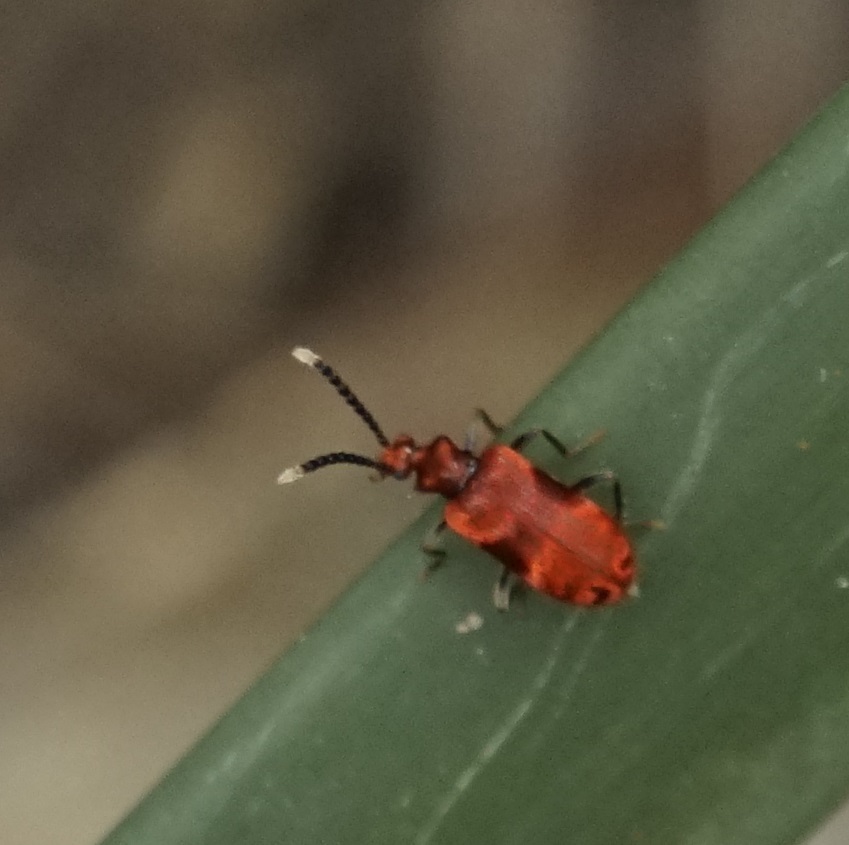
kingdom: Animalia
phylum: Arthropoda
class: Insecta
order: Coleoptera
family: Anthicidae
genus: Lemodes
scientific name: Lemodes
